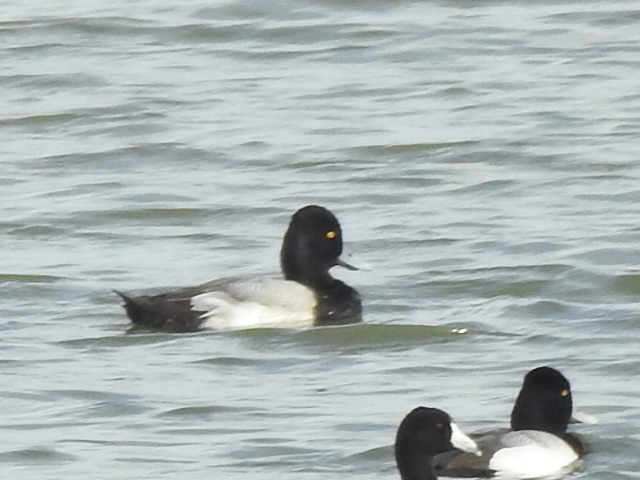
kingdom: Animalia
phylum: Chordata
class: Aves
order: Anseriformes
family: Anatidae
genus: Aythya
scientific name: Aythya affinis
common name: Lesser scaup
